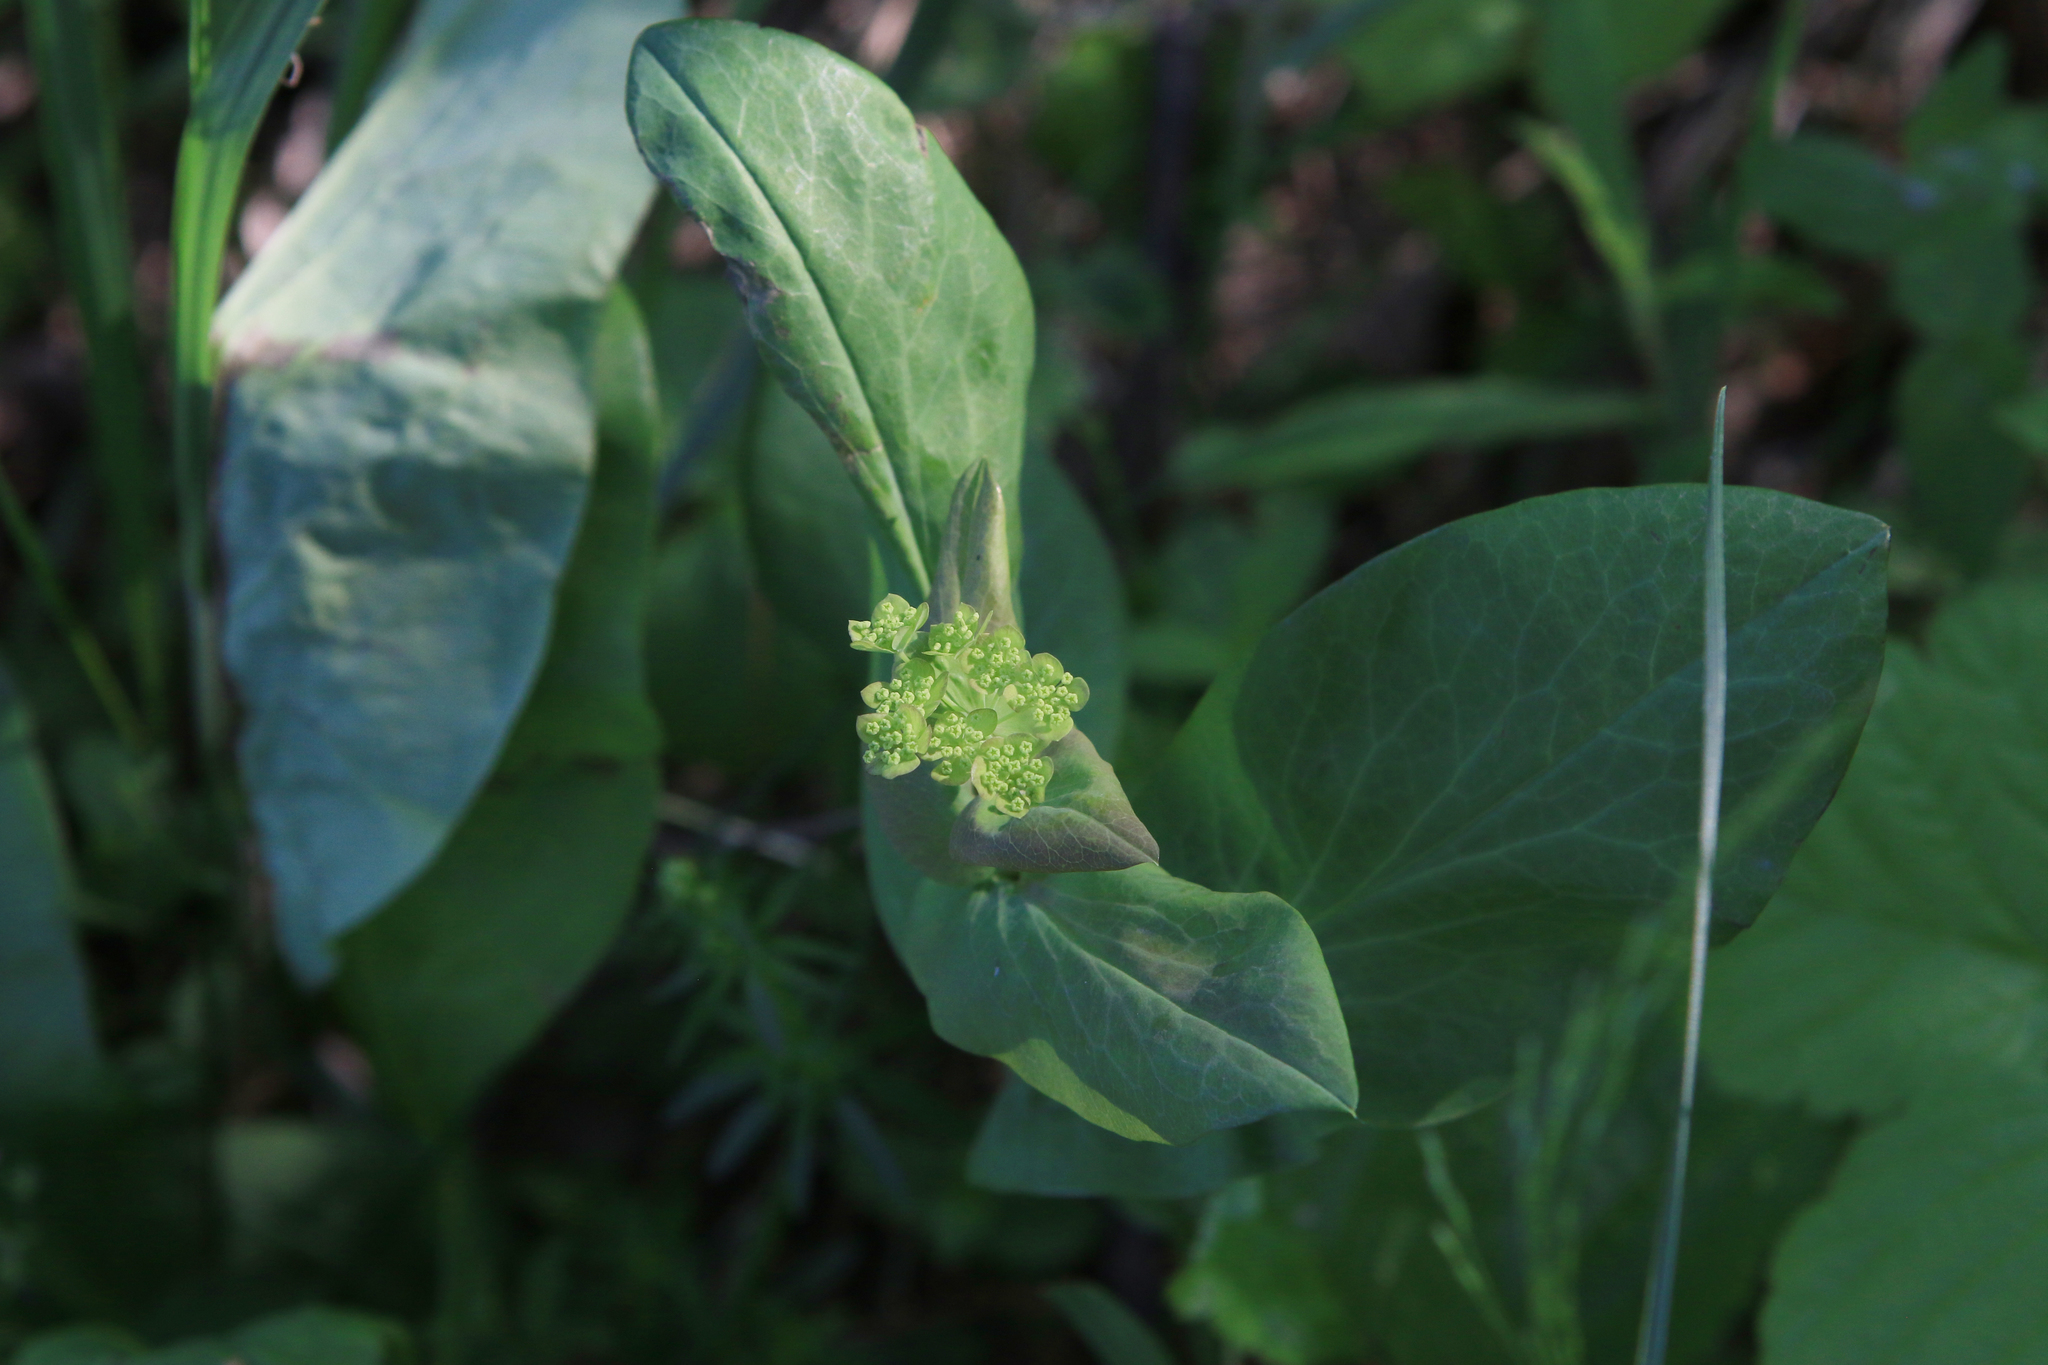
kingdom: Plantae
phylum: Tracheophyta
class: Magnoliopsida
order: Apiales
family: Apiaceae
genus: Bupleurum
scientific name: Bupleurum aureum
